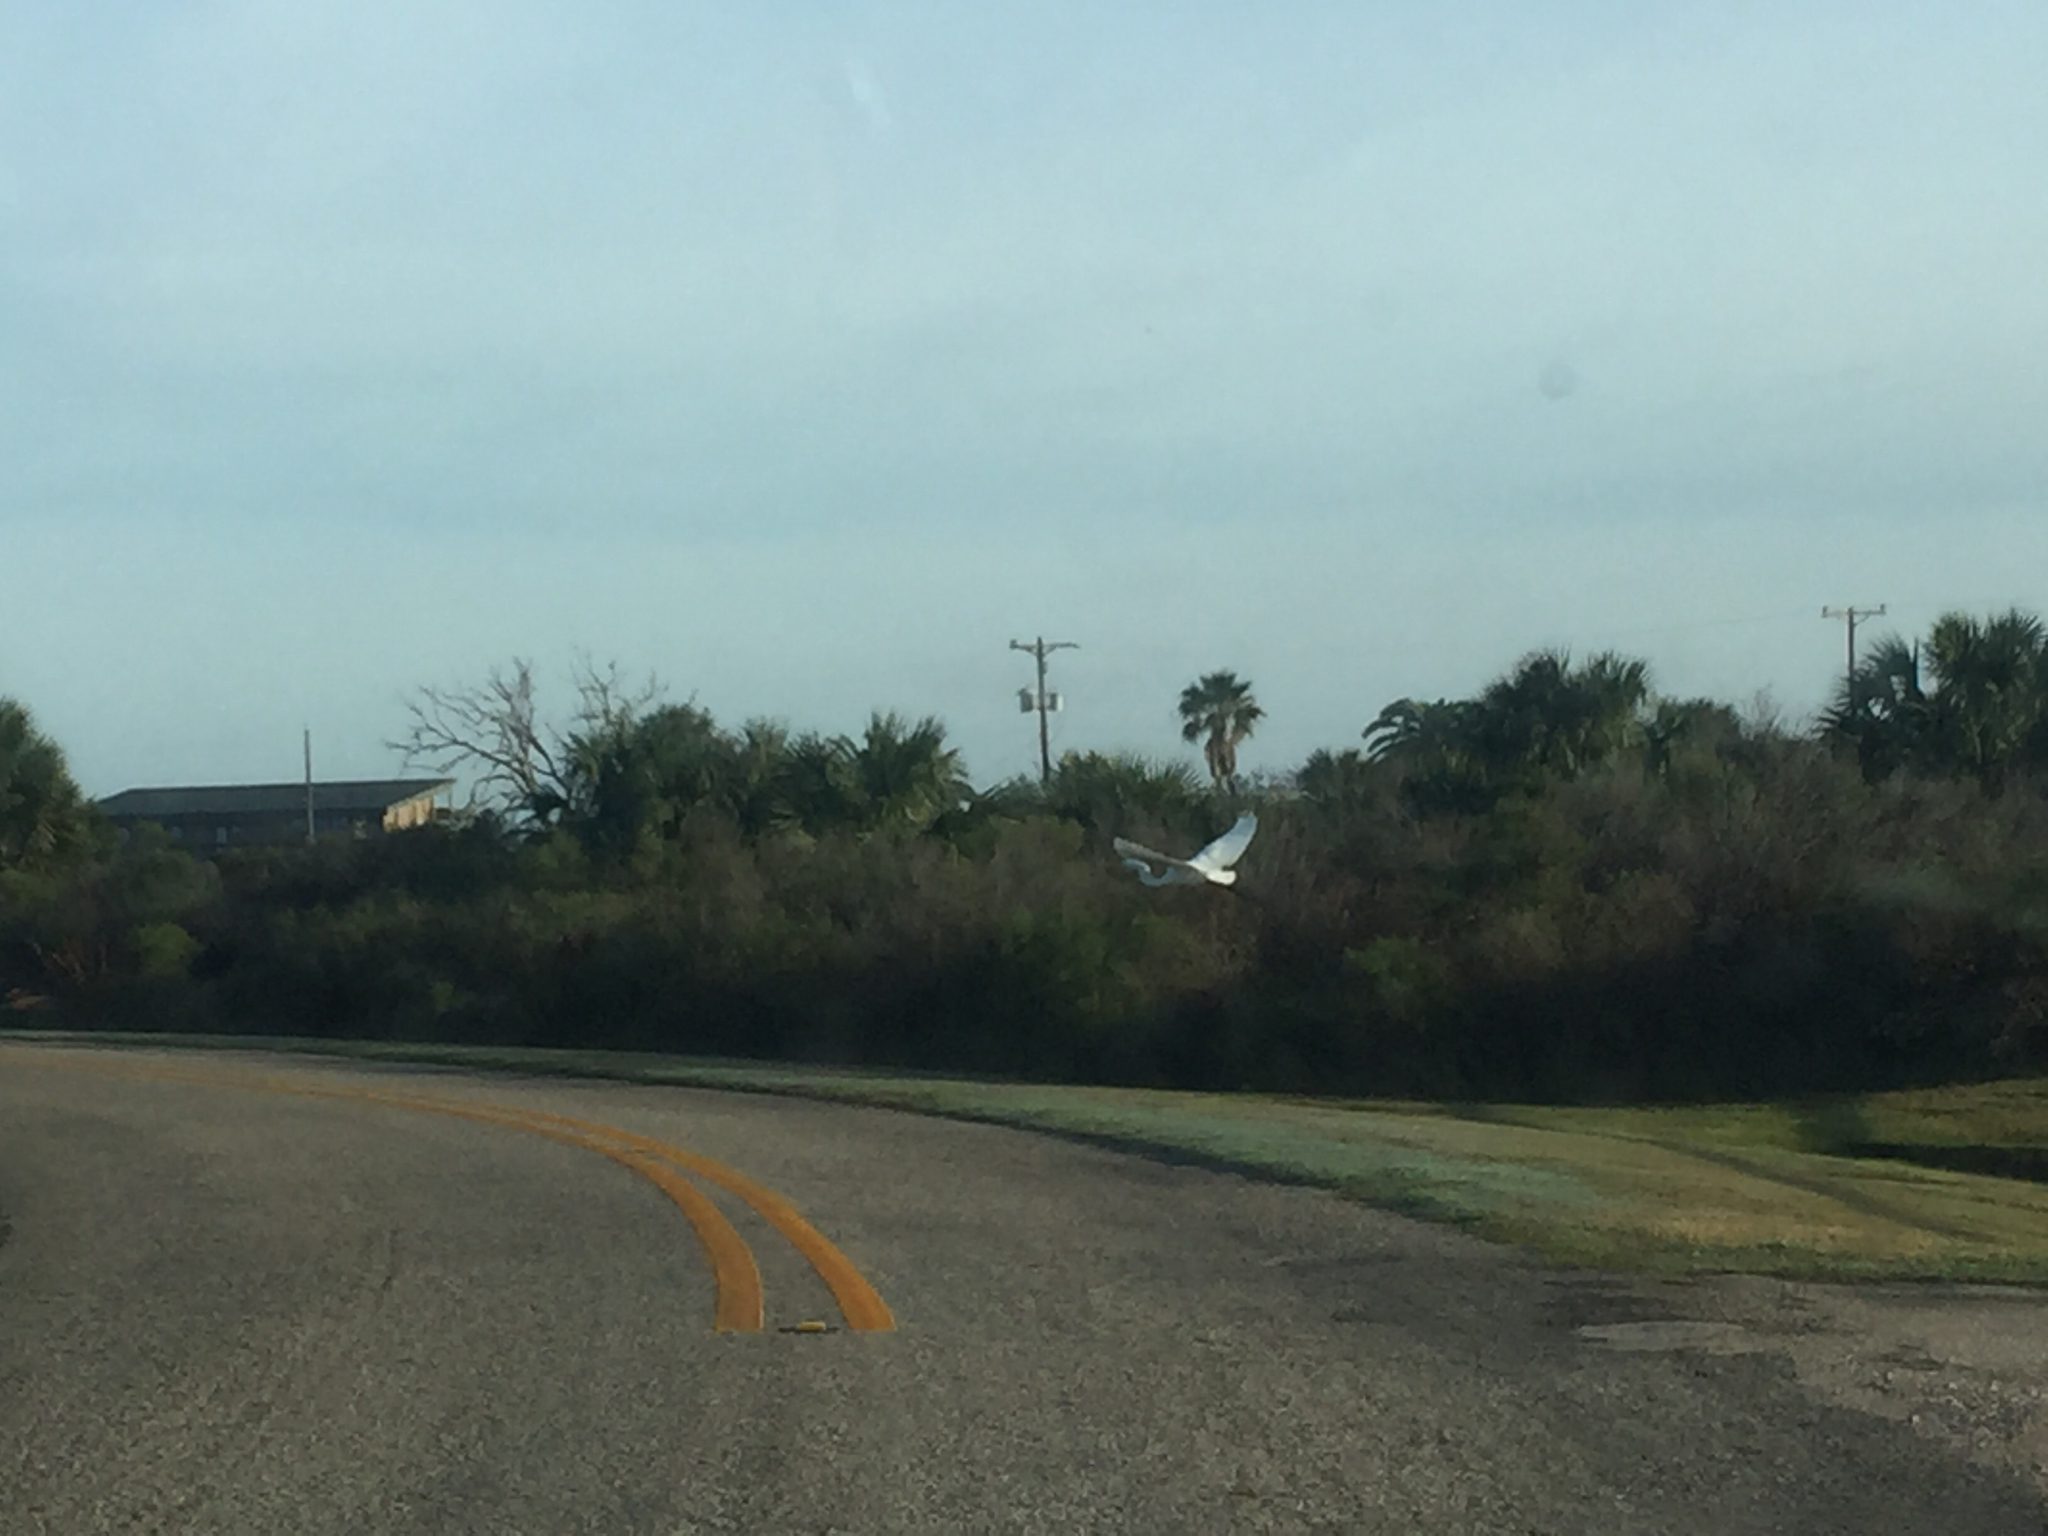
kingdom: Animalia
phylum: Chordata
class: Aves
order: Pelecaniformes
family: Ardeidae
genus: Ardea
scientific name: Ardea alba
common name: Great egret
